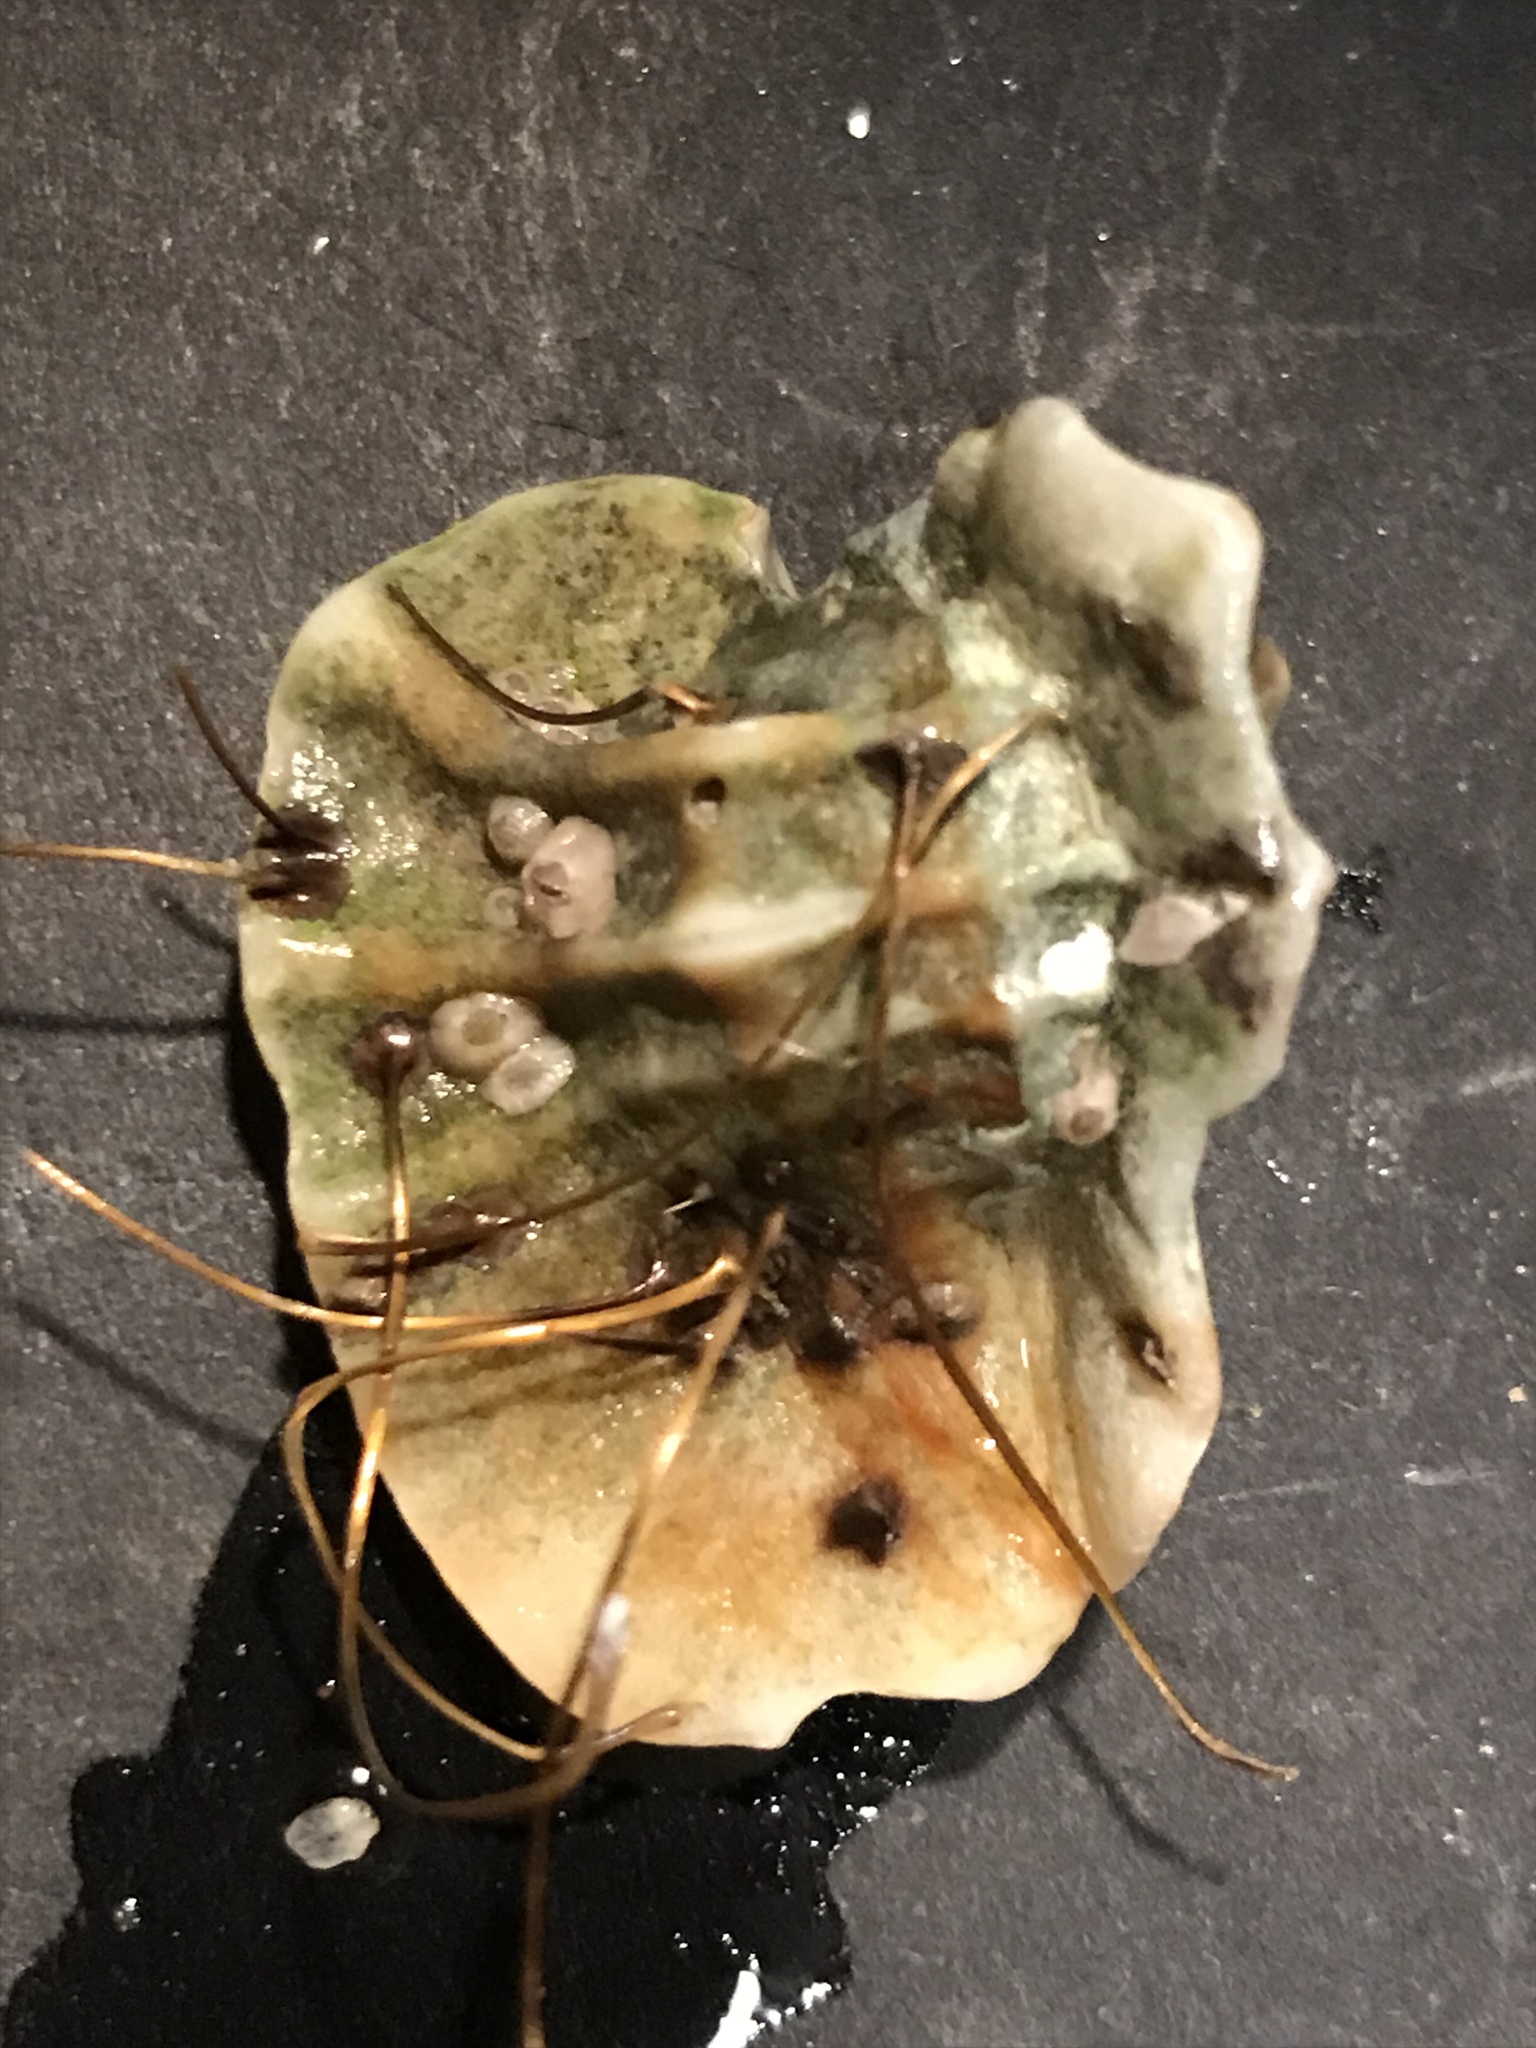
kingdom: Animalia
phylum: Mollusca
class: Gastropoda
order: Neogastropoda
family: Muricidae
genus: Ceratostoma
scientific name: Ceratostoma foliatum
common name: Foliate thorn purpura
